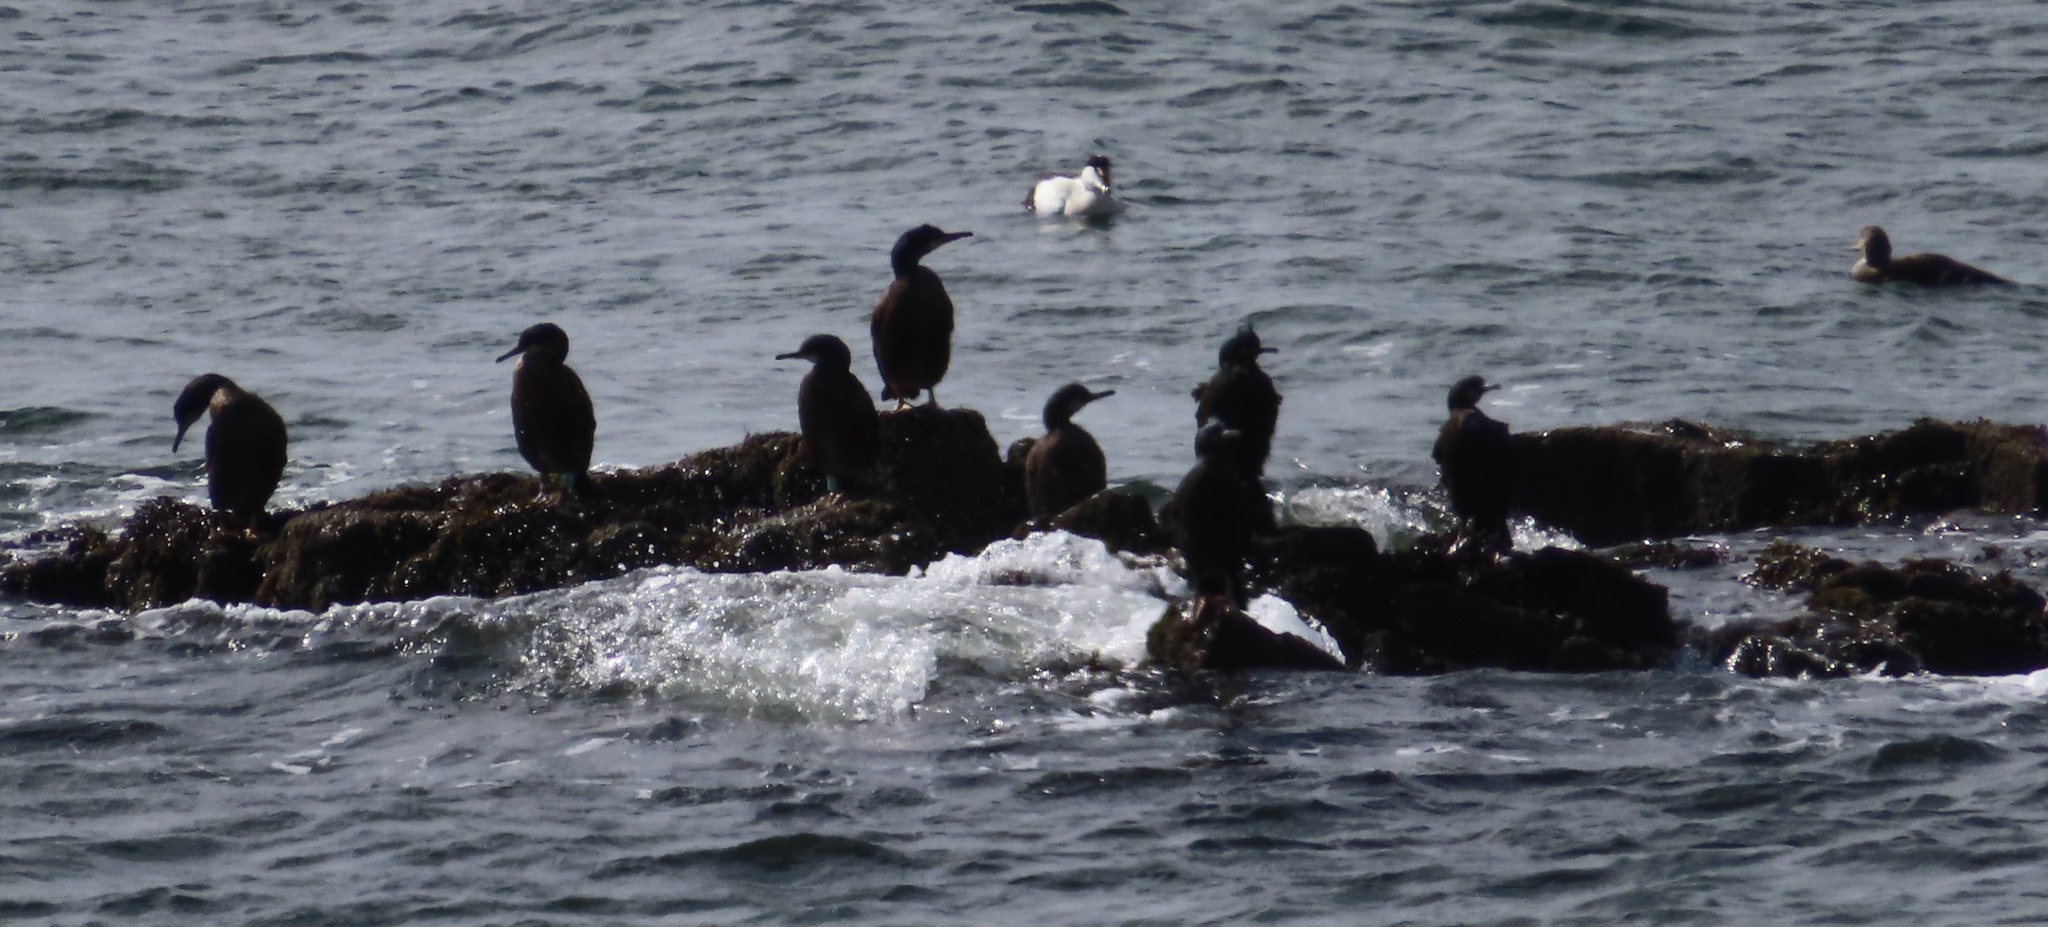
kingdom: Animalia
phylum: Chordata
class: Aves
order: Suliformes
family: Phalacrocoracidae
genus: Phalacrocorax
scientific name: Phalacrocorax aristotelis
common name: European shag
